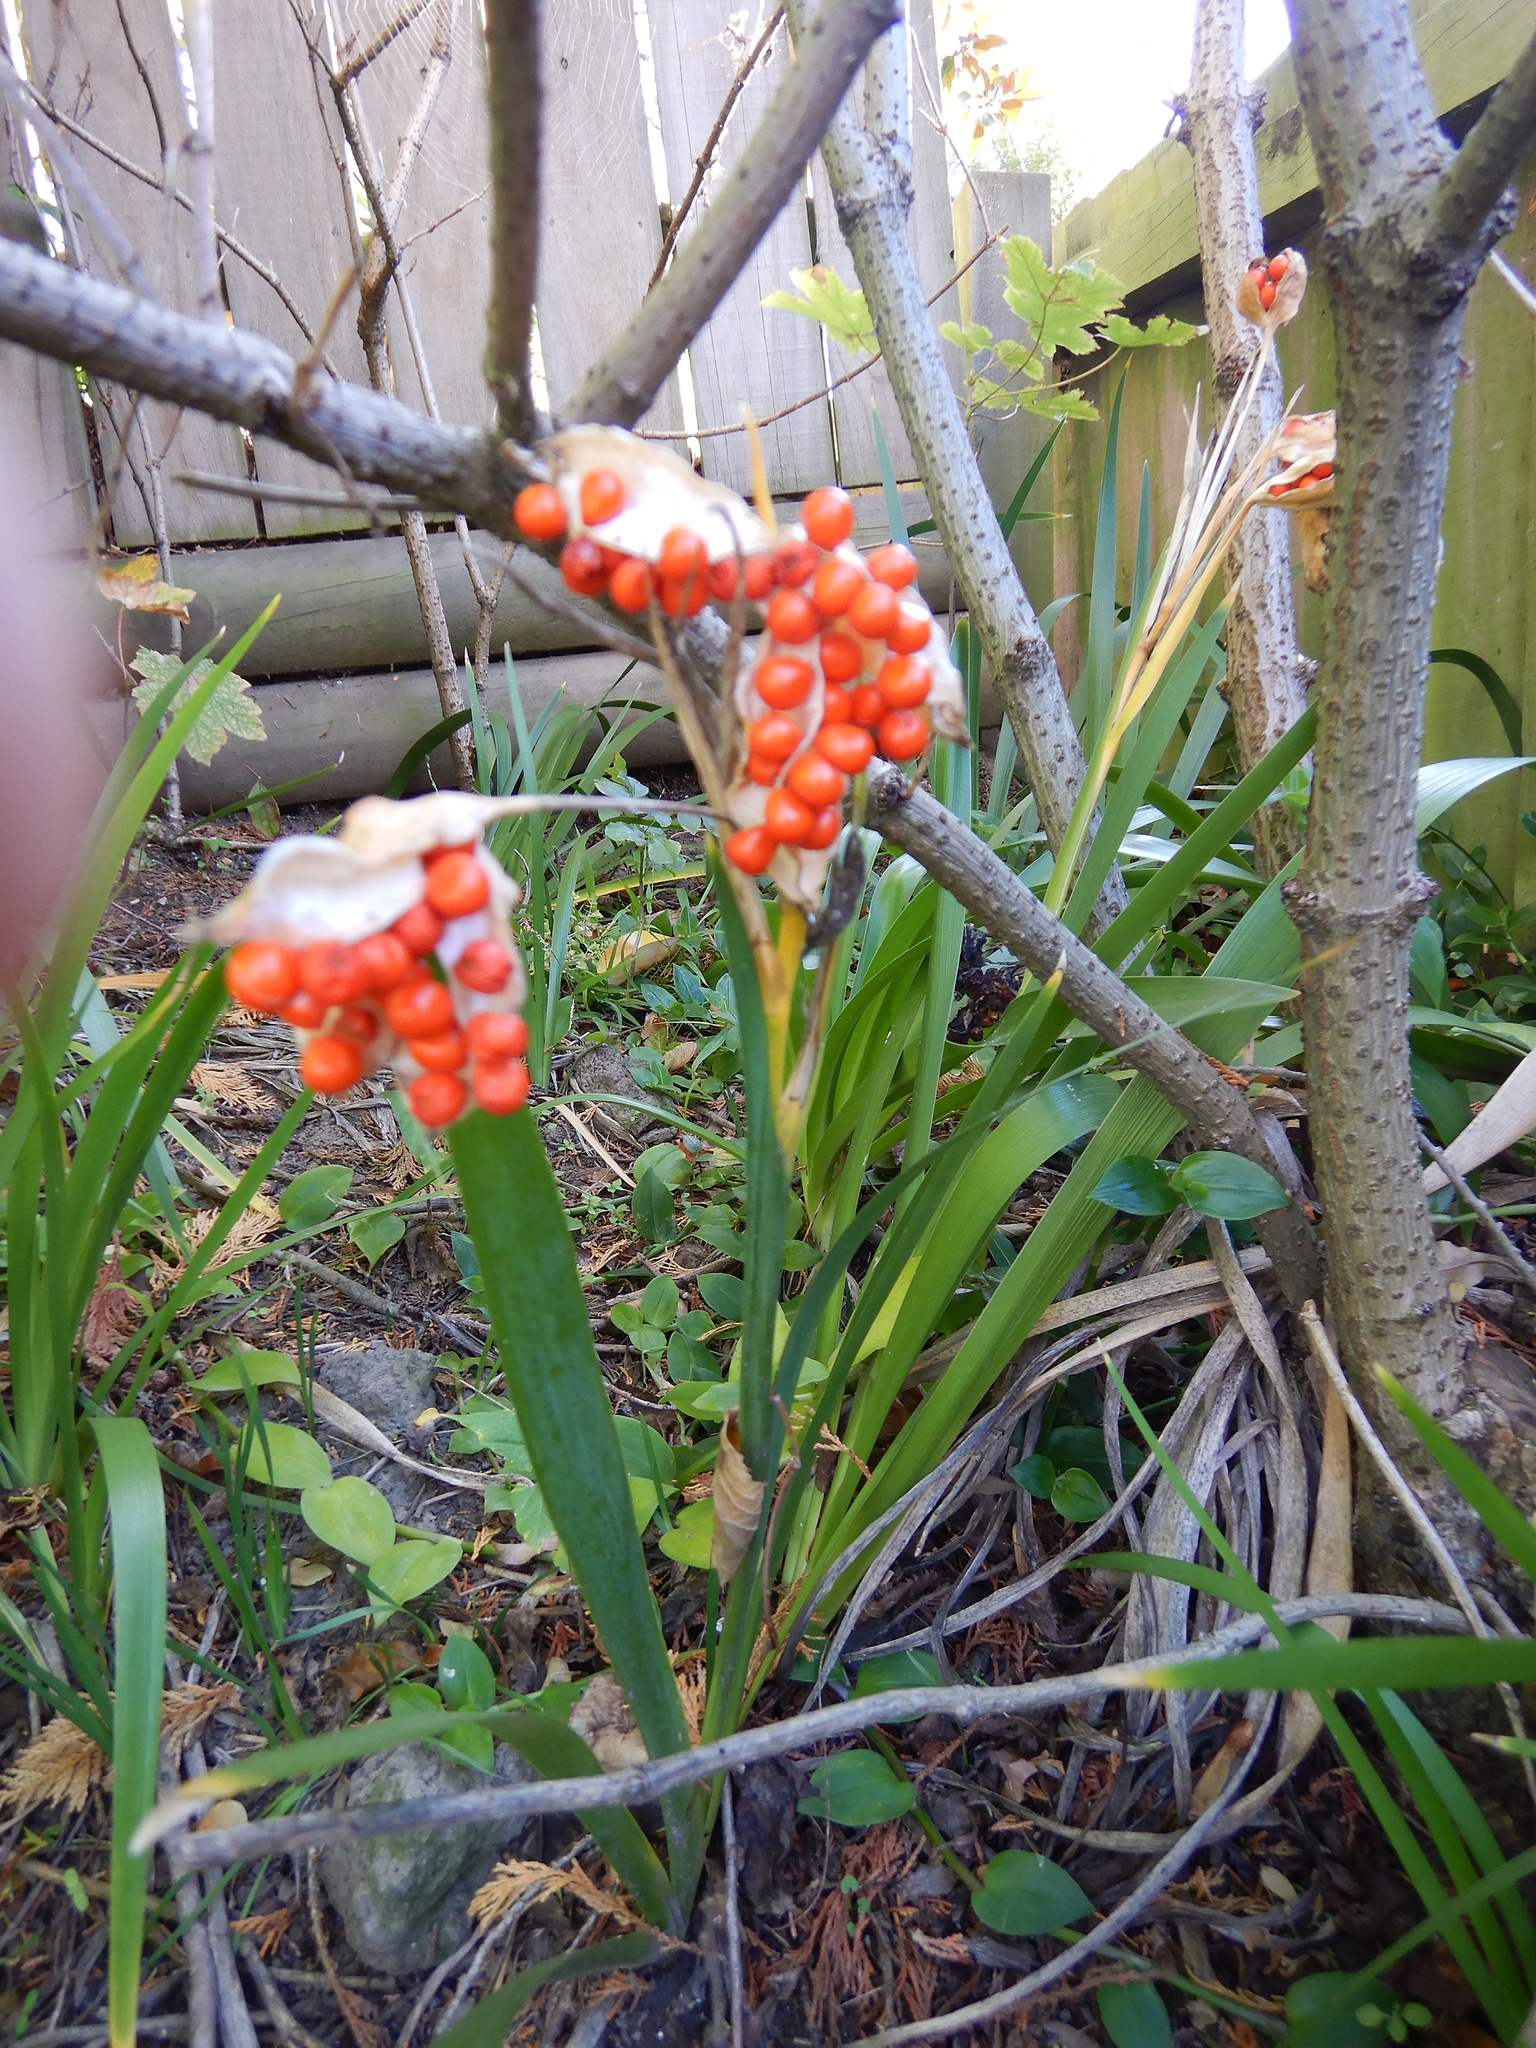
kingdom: Plantae
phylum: Tracheophyta
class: Liliopsida
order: Asparagales
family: Iridaceae
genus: Iris
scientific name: Iris foetidissima
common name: Stinking iris
